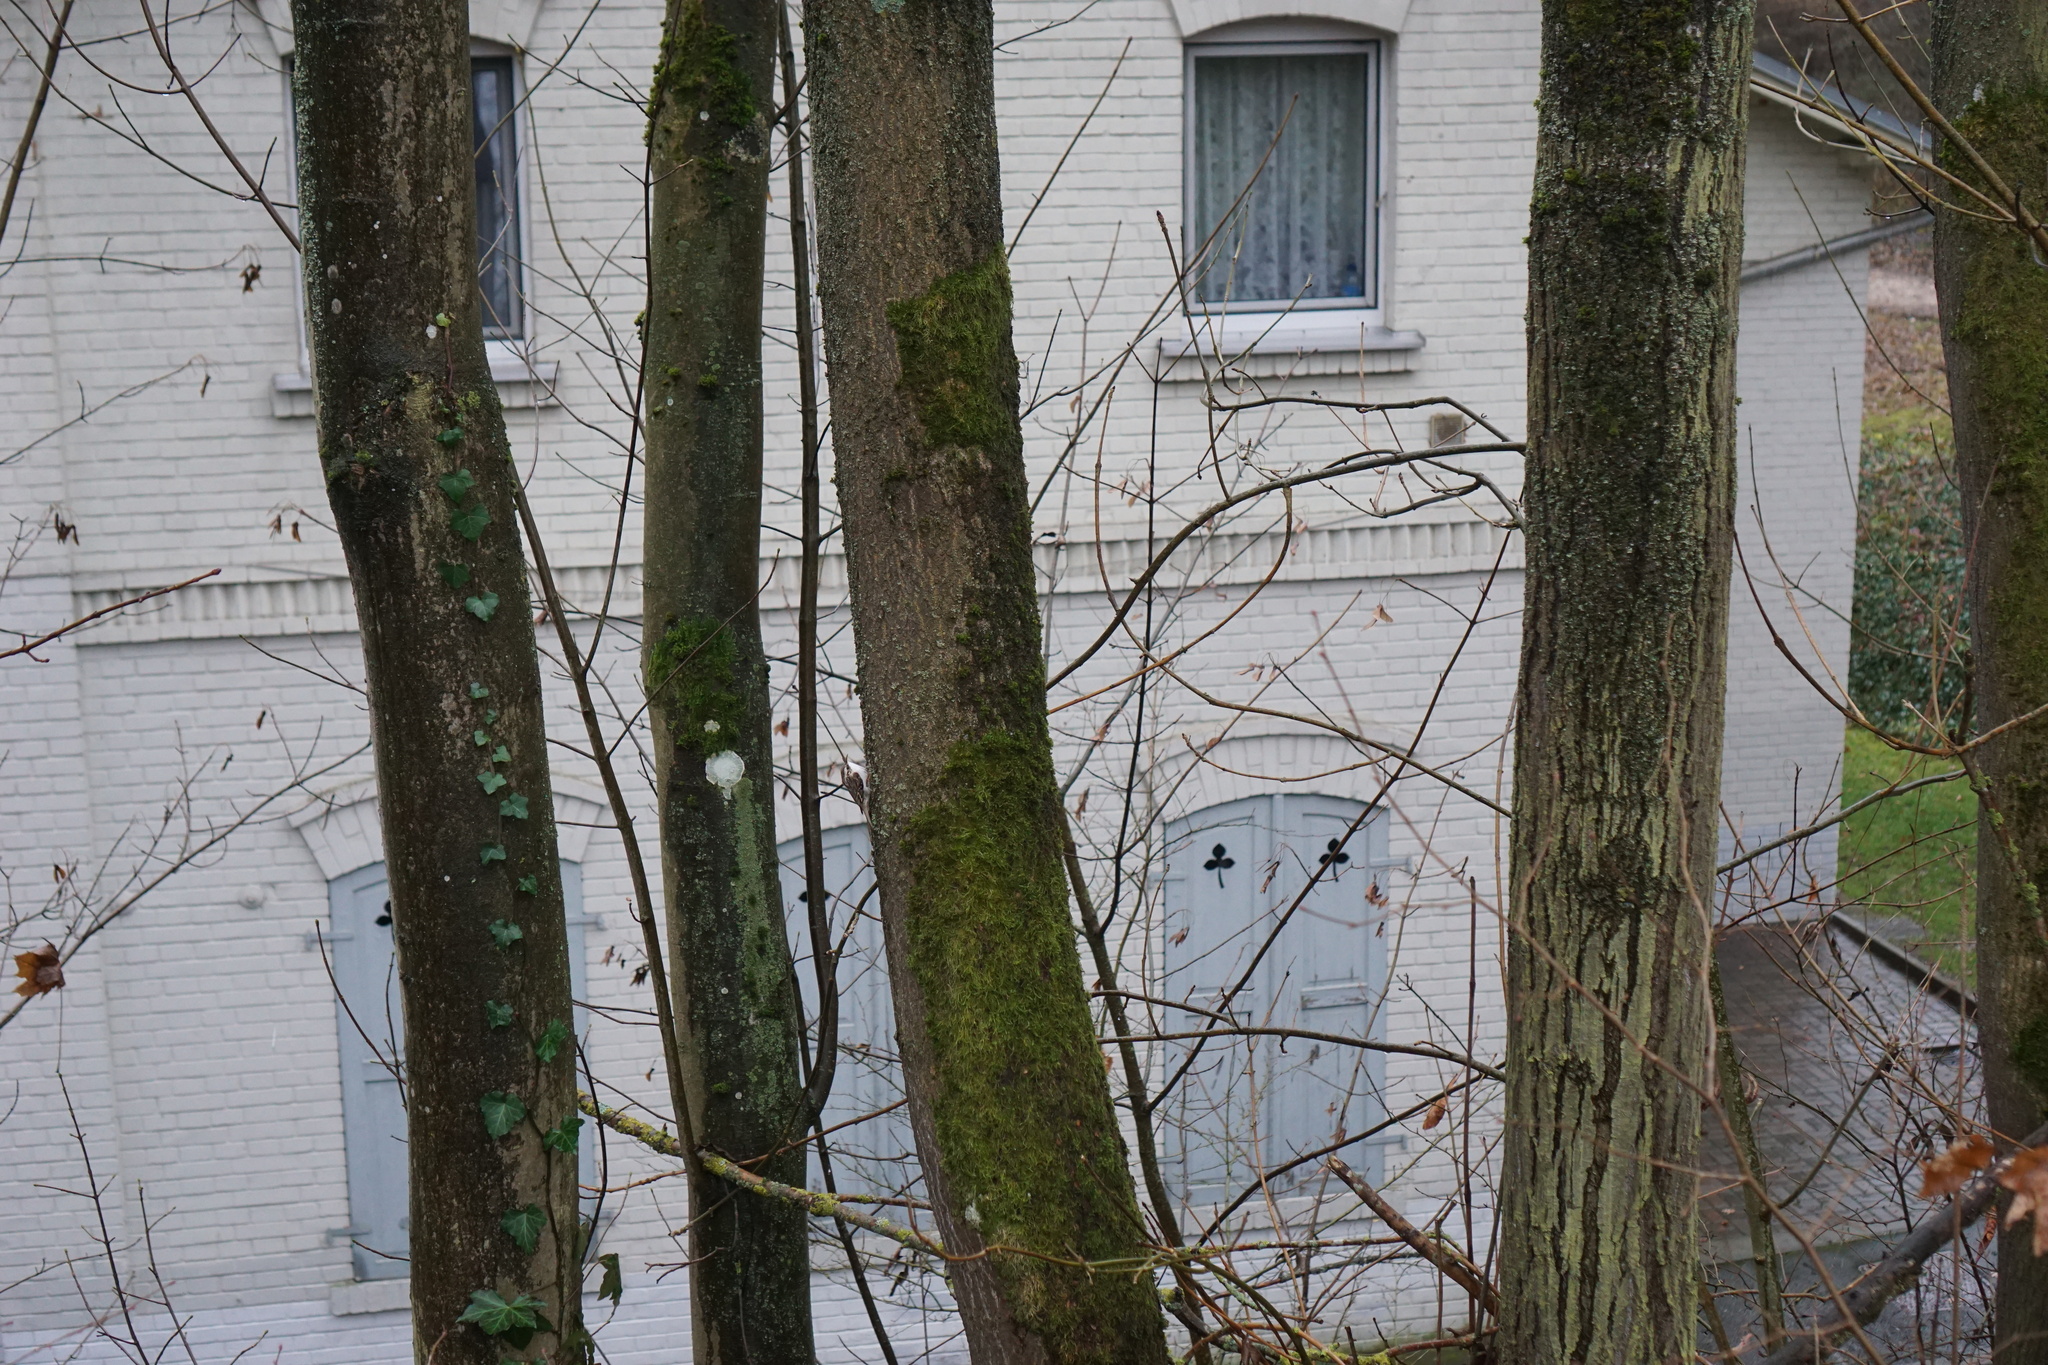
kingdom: Animalia
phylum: Chordata
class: Aves
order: Passeriformes
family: Certhiidae
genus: Certhia
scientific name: Certhia familiaris
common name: Eurasian treecreeper
